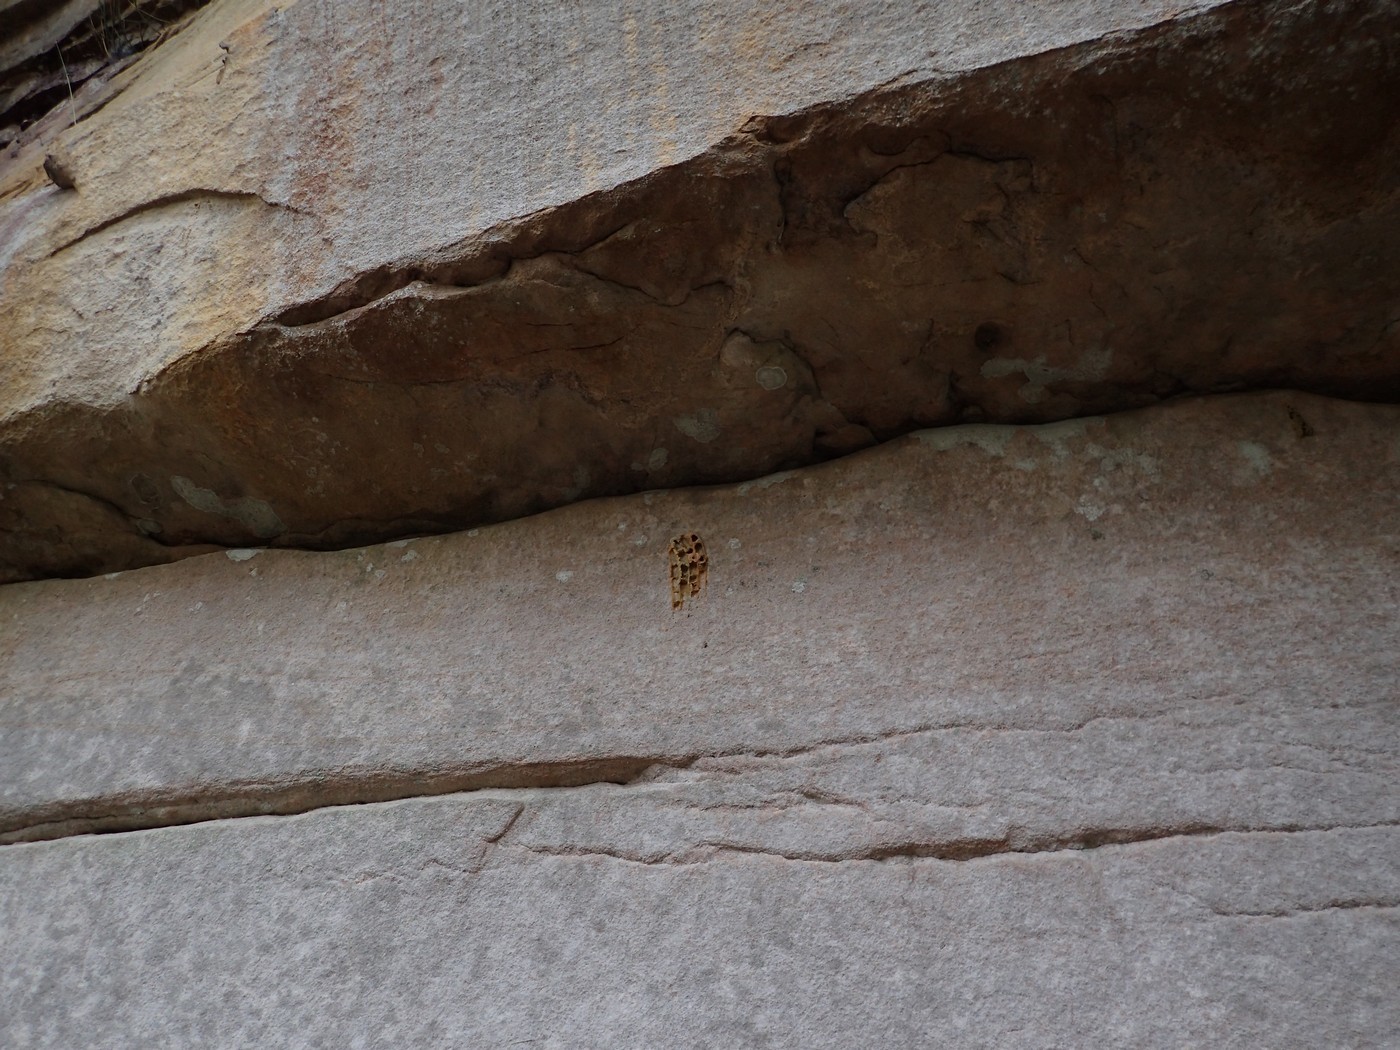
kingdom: Animalia
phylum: Arthropoda
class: Insecta
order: Hymenoptera
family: Crabronidae
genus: Trypoxylon
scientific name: Trypoxylon politum
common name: Organ-pipe mud-dauber wasp
